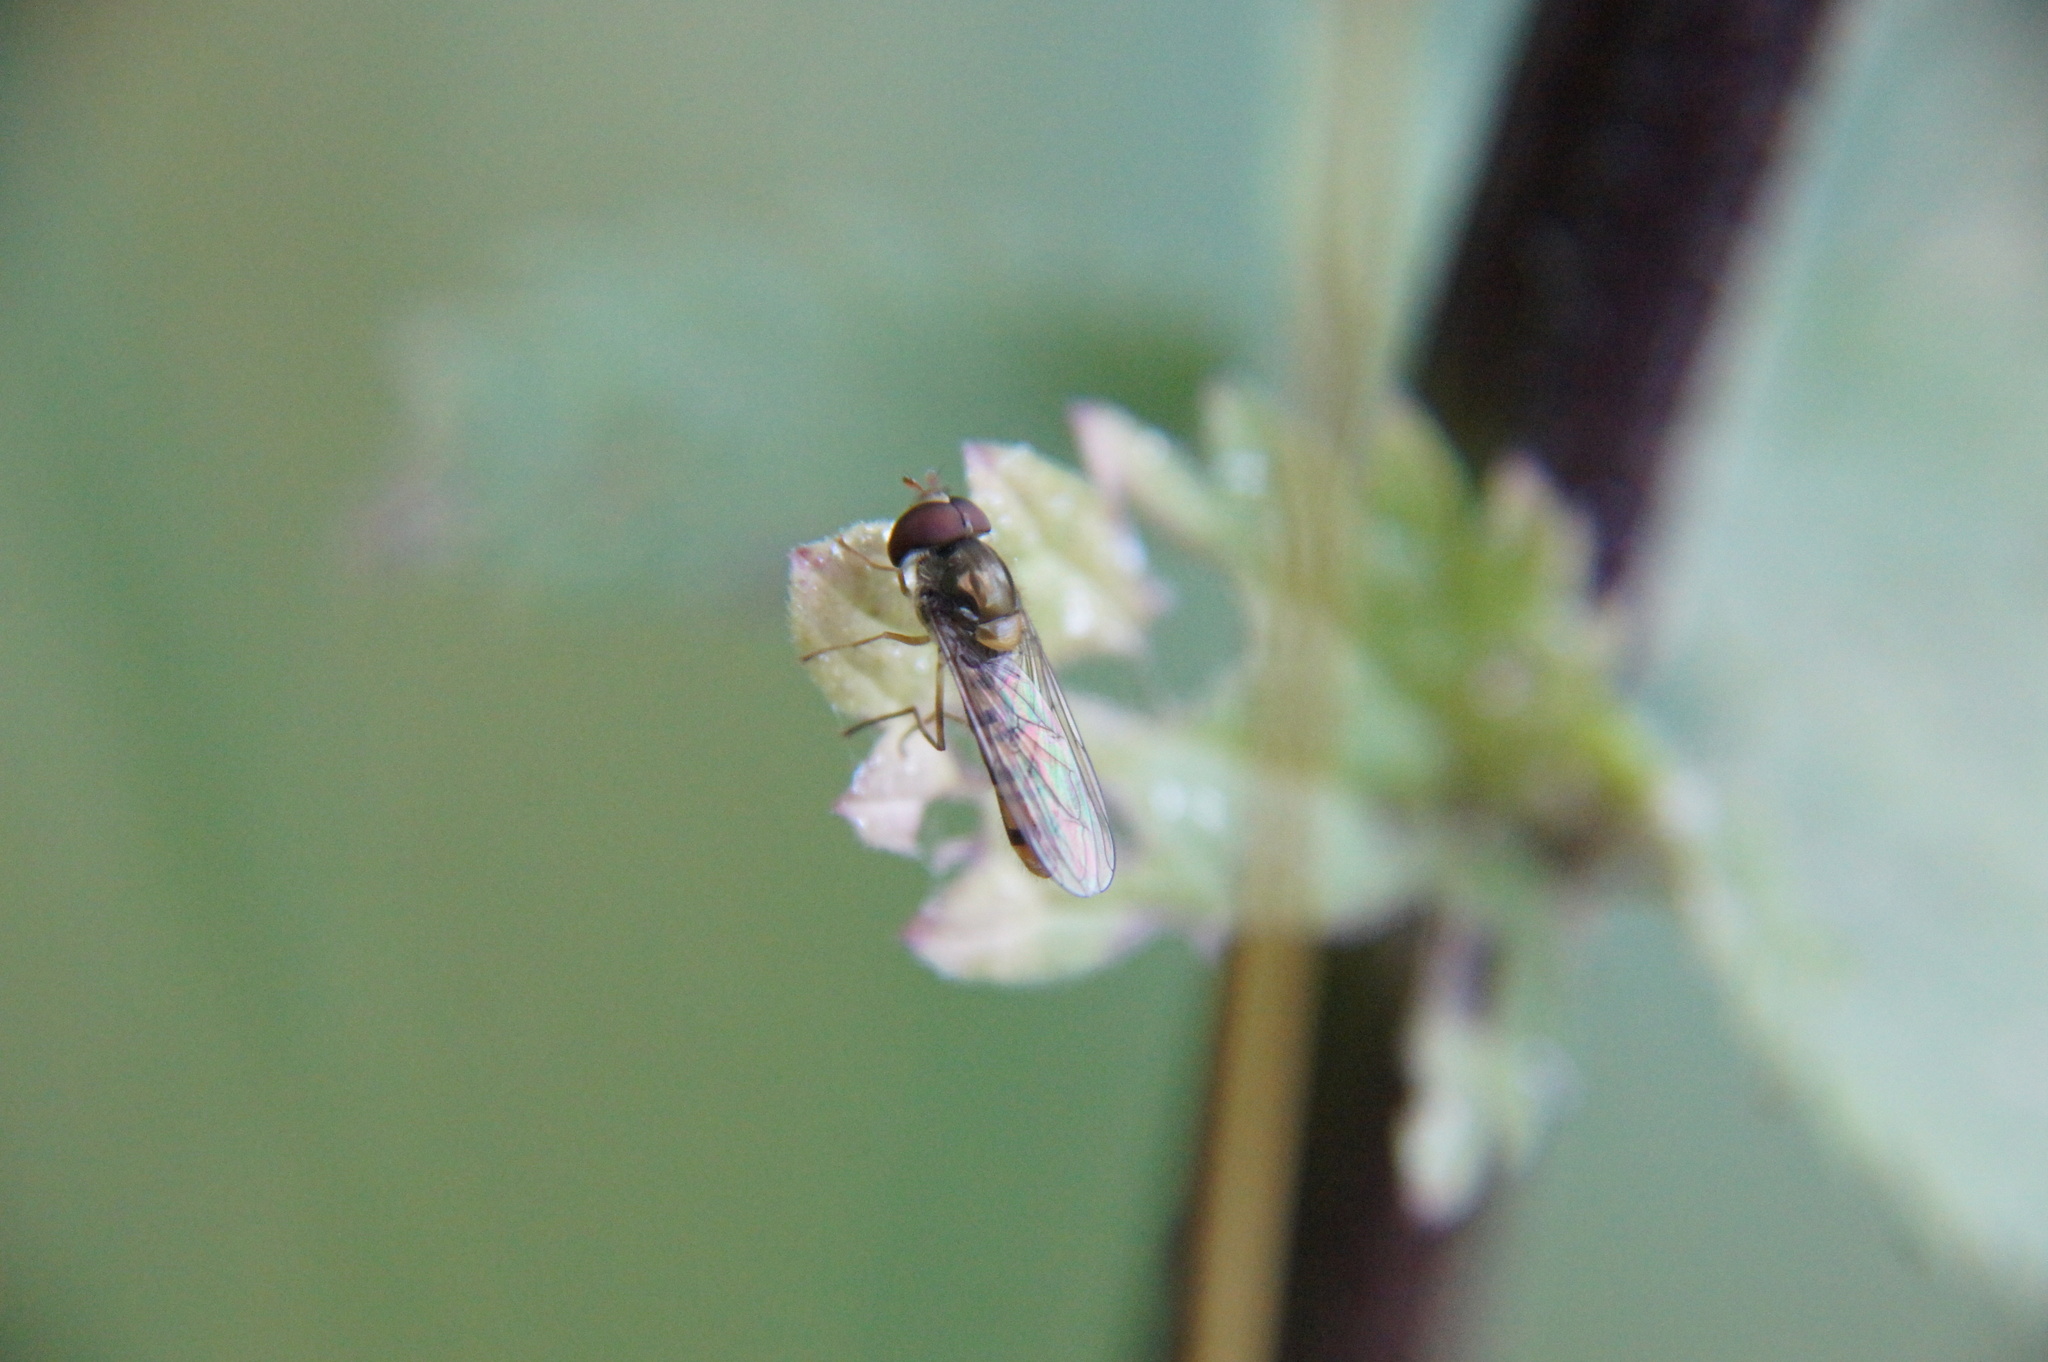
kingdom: Animalia
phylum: Arthropoda
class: Insecta
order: Diptera
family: Syrphidae
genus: Episyrphus
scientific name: Episyrphus balteatus
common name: Marmalade hoverfly
